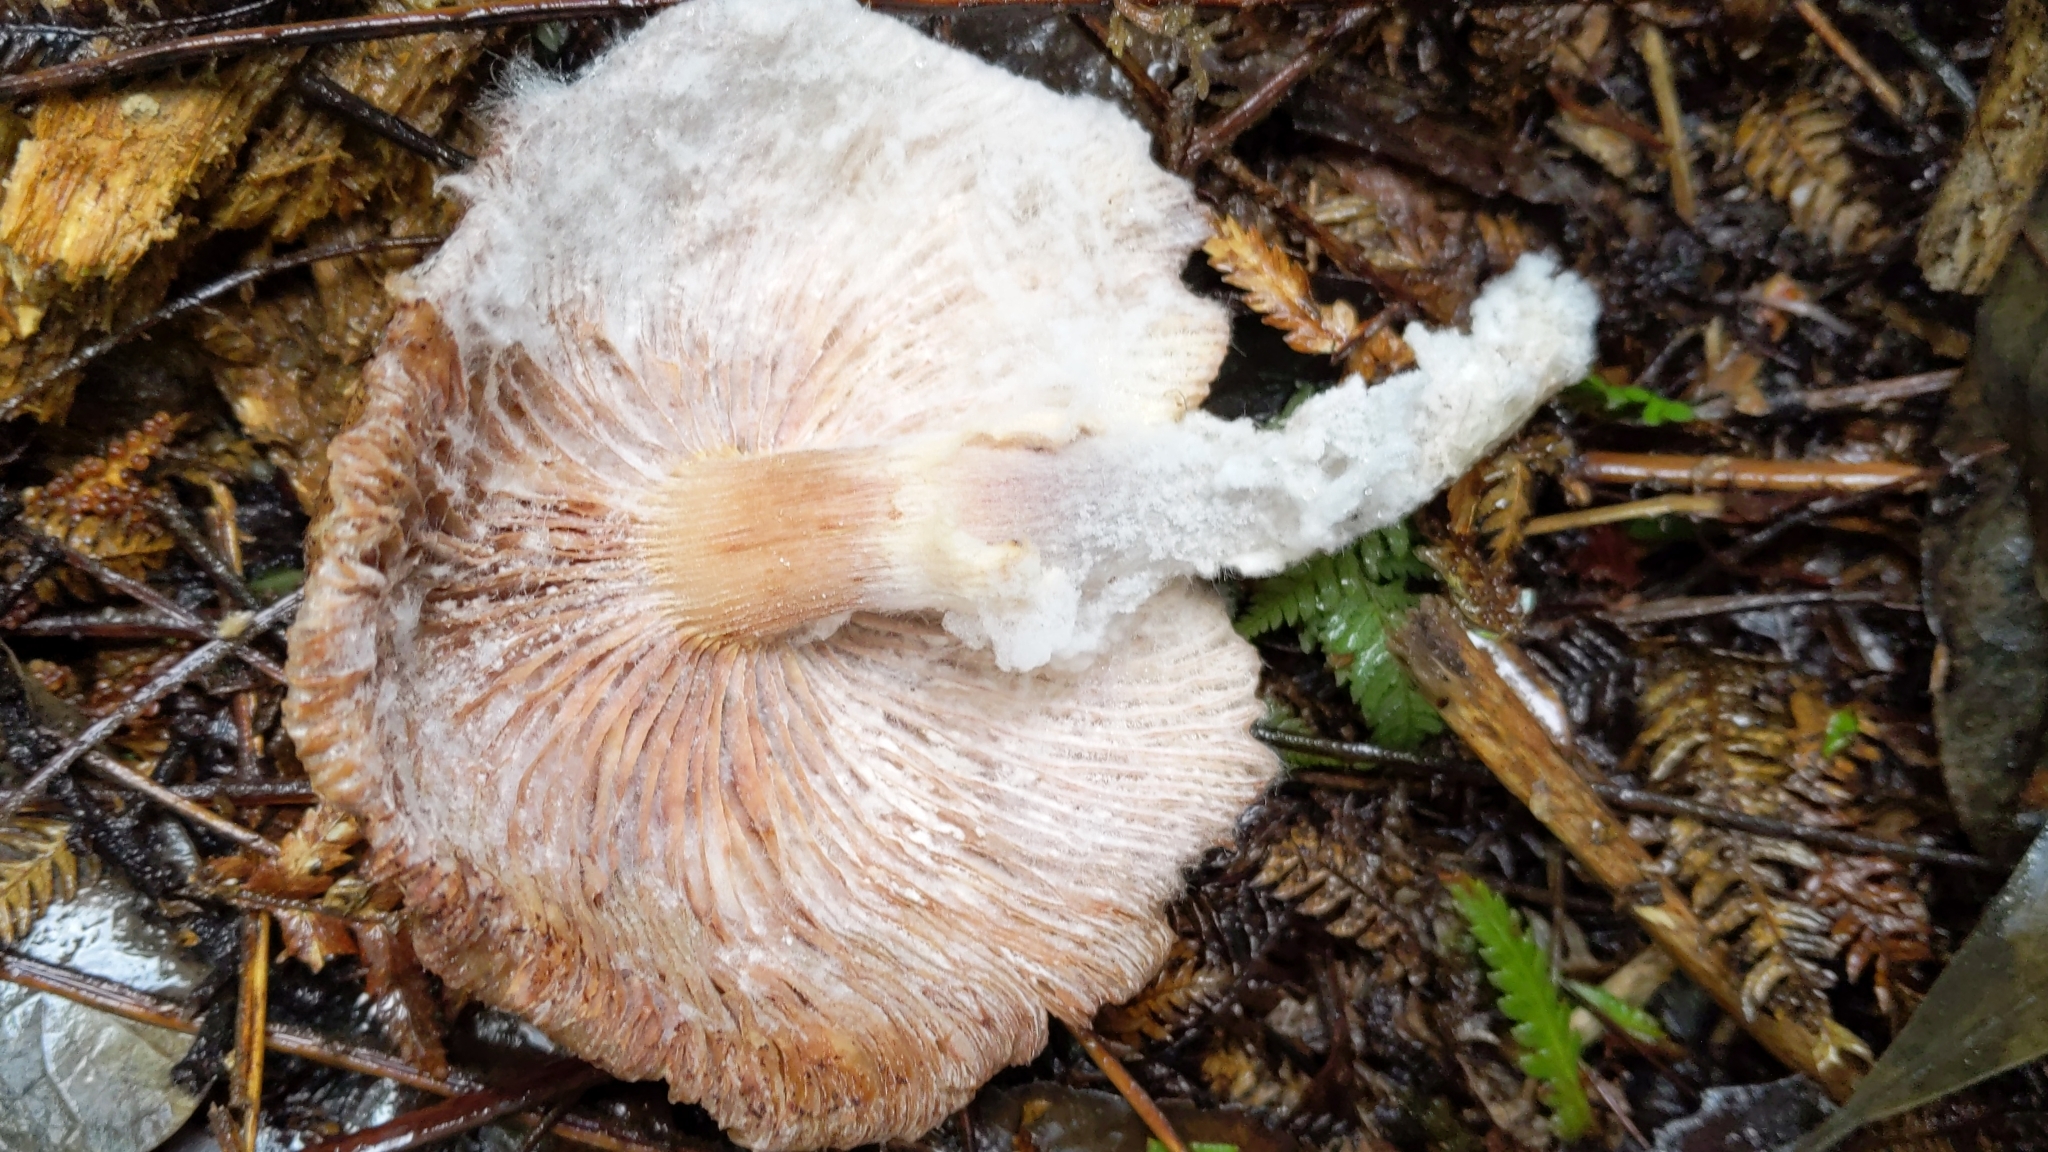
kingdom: Fungi
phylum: Basidiomycota
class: Agaricomycetes
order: Agaricales
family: Physalacriaceae
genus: Armillaria
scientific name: Armillaria limonea
